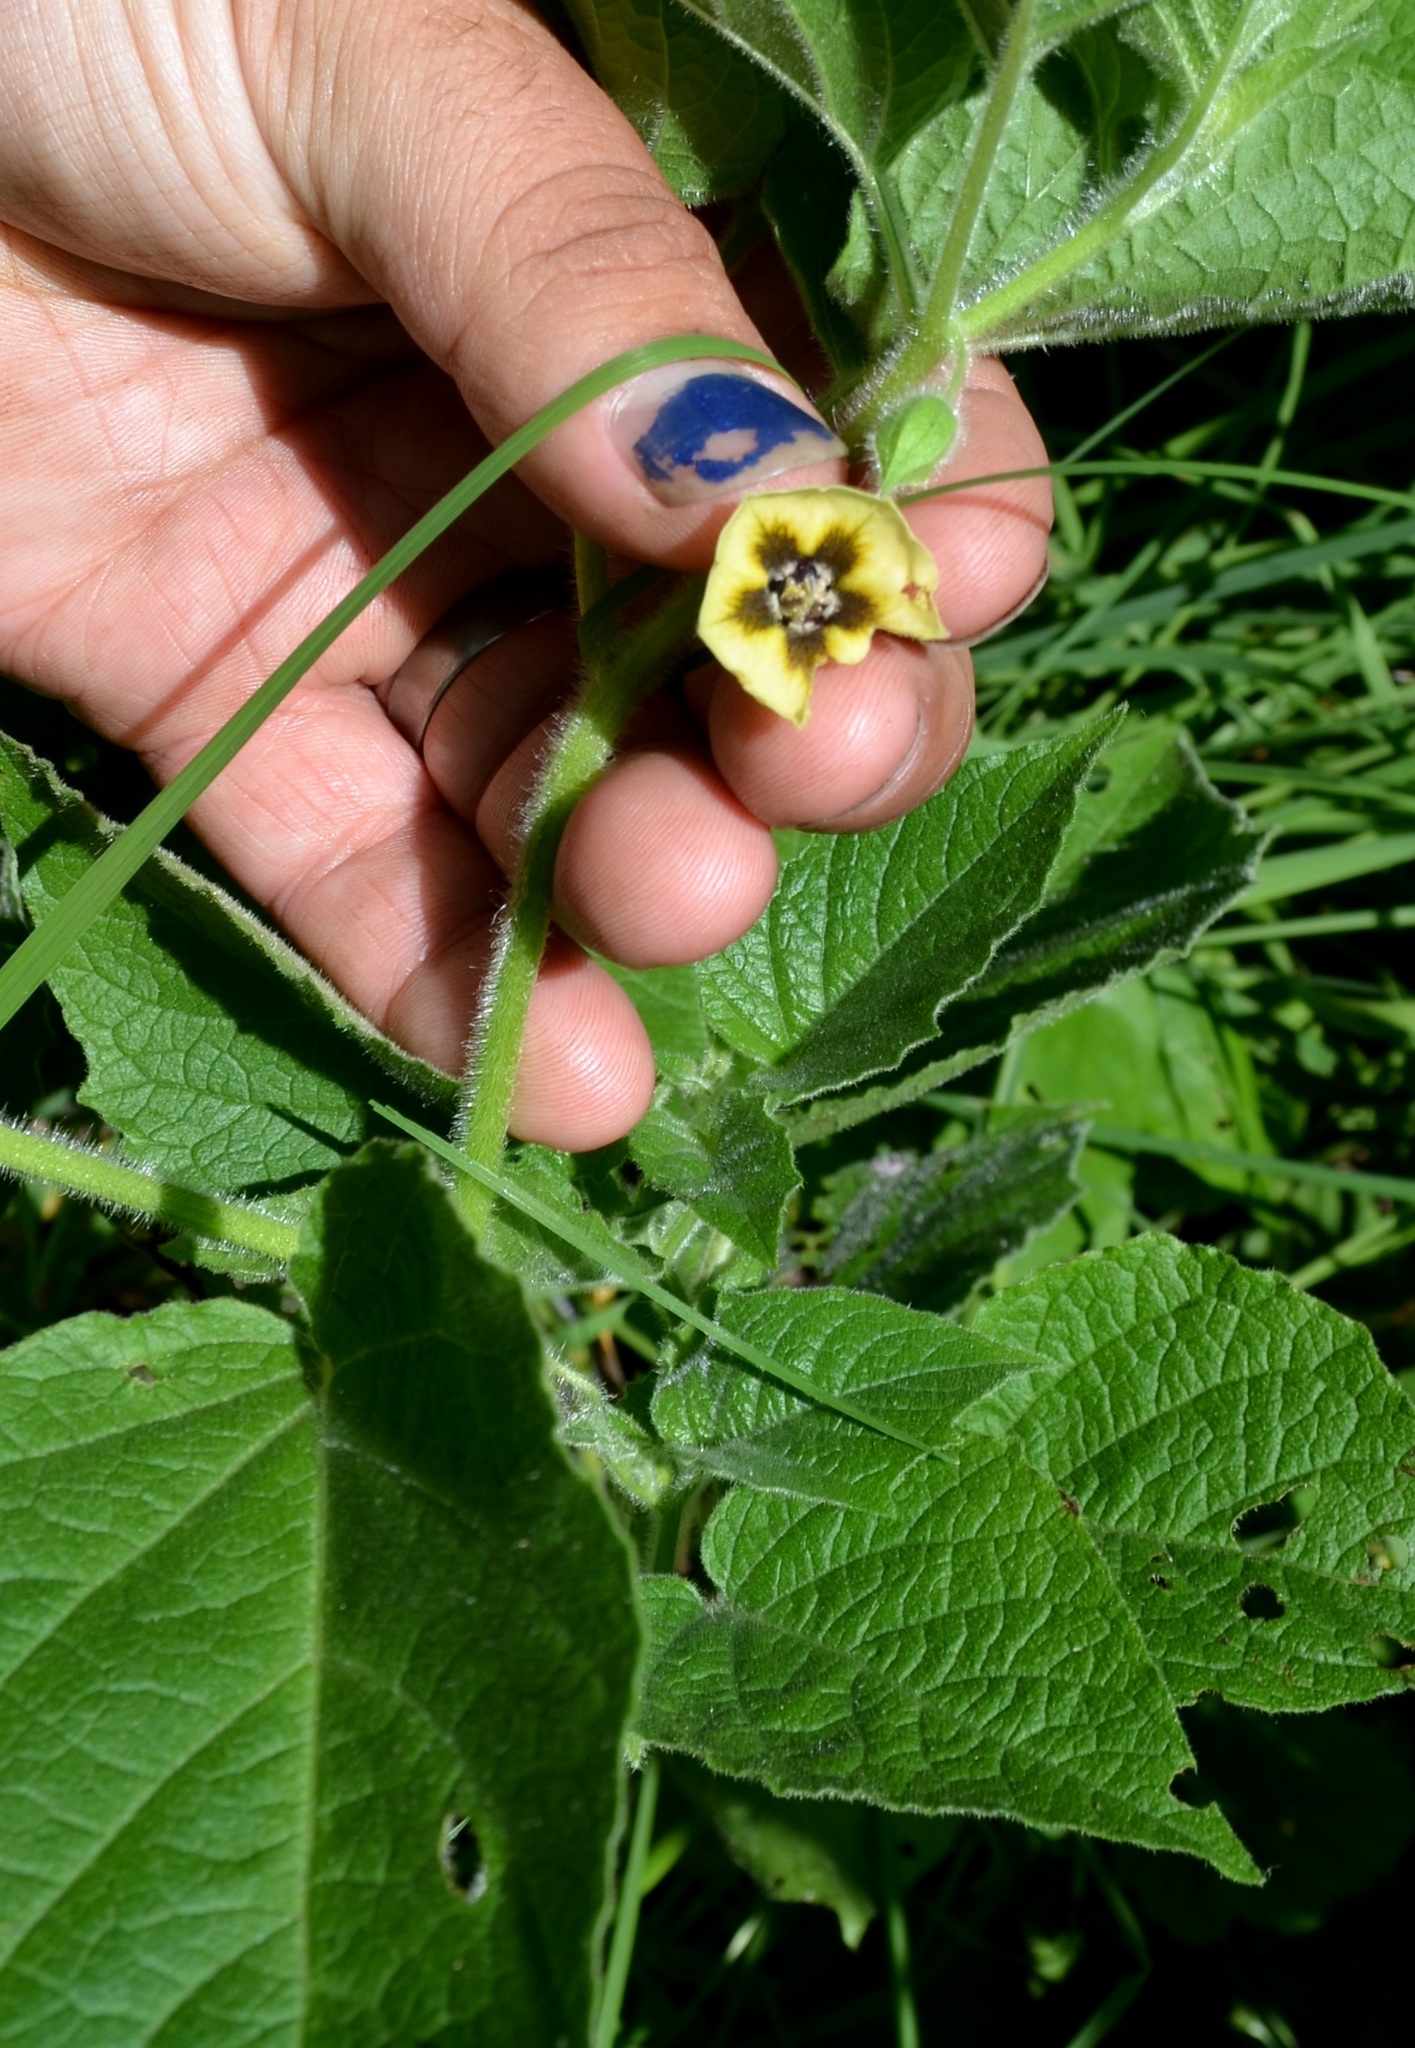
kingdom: Plantae
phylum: Tracheophyta
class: Magnoliopsida
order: Solanales
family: Solanaceae
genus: Physalis
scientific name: Physalis heterophylla
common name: Clammy ground-cherry
